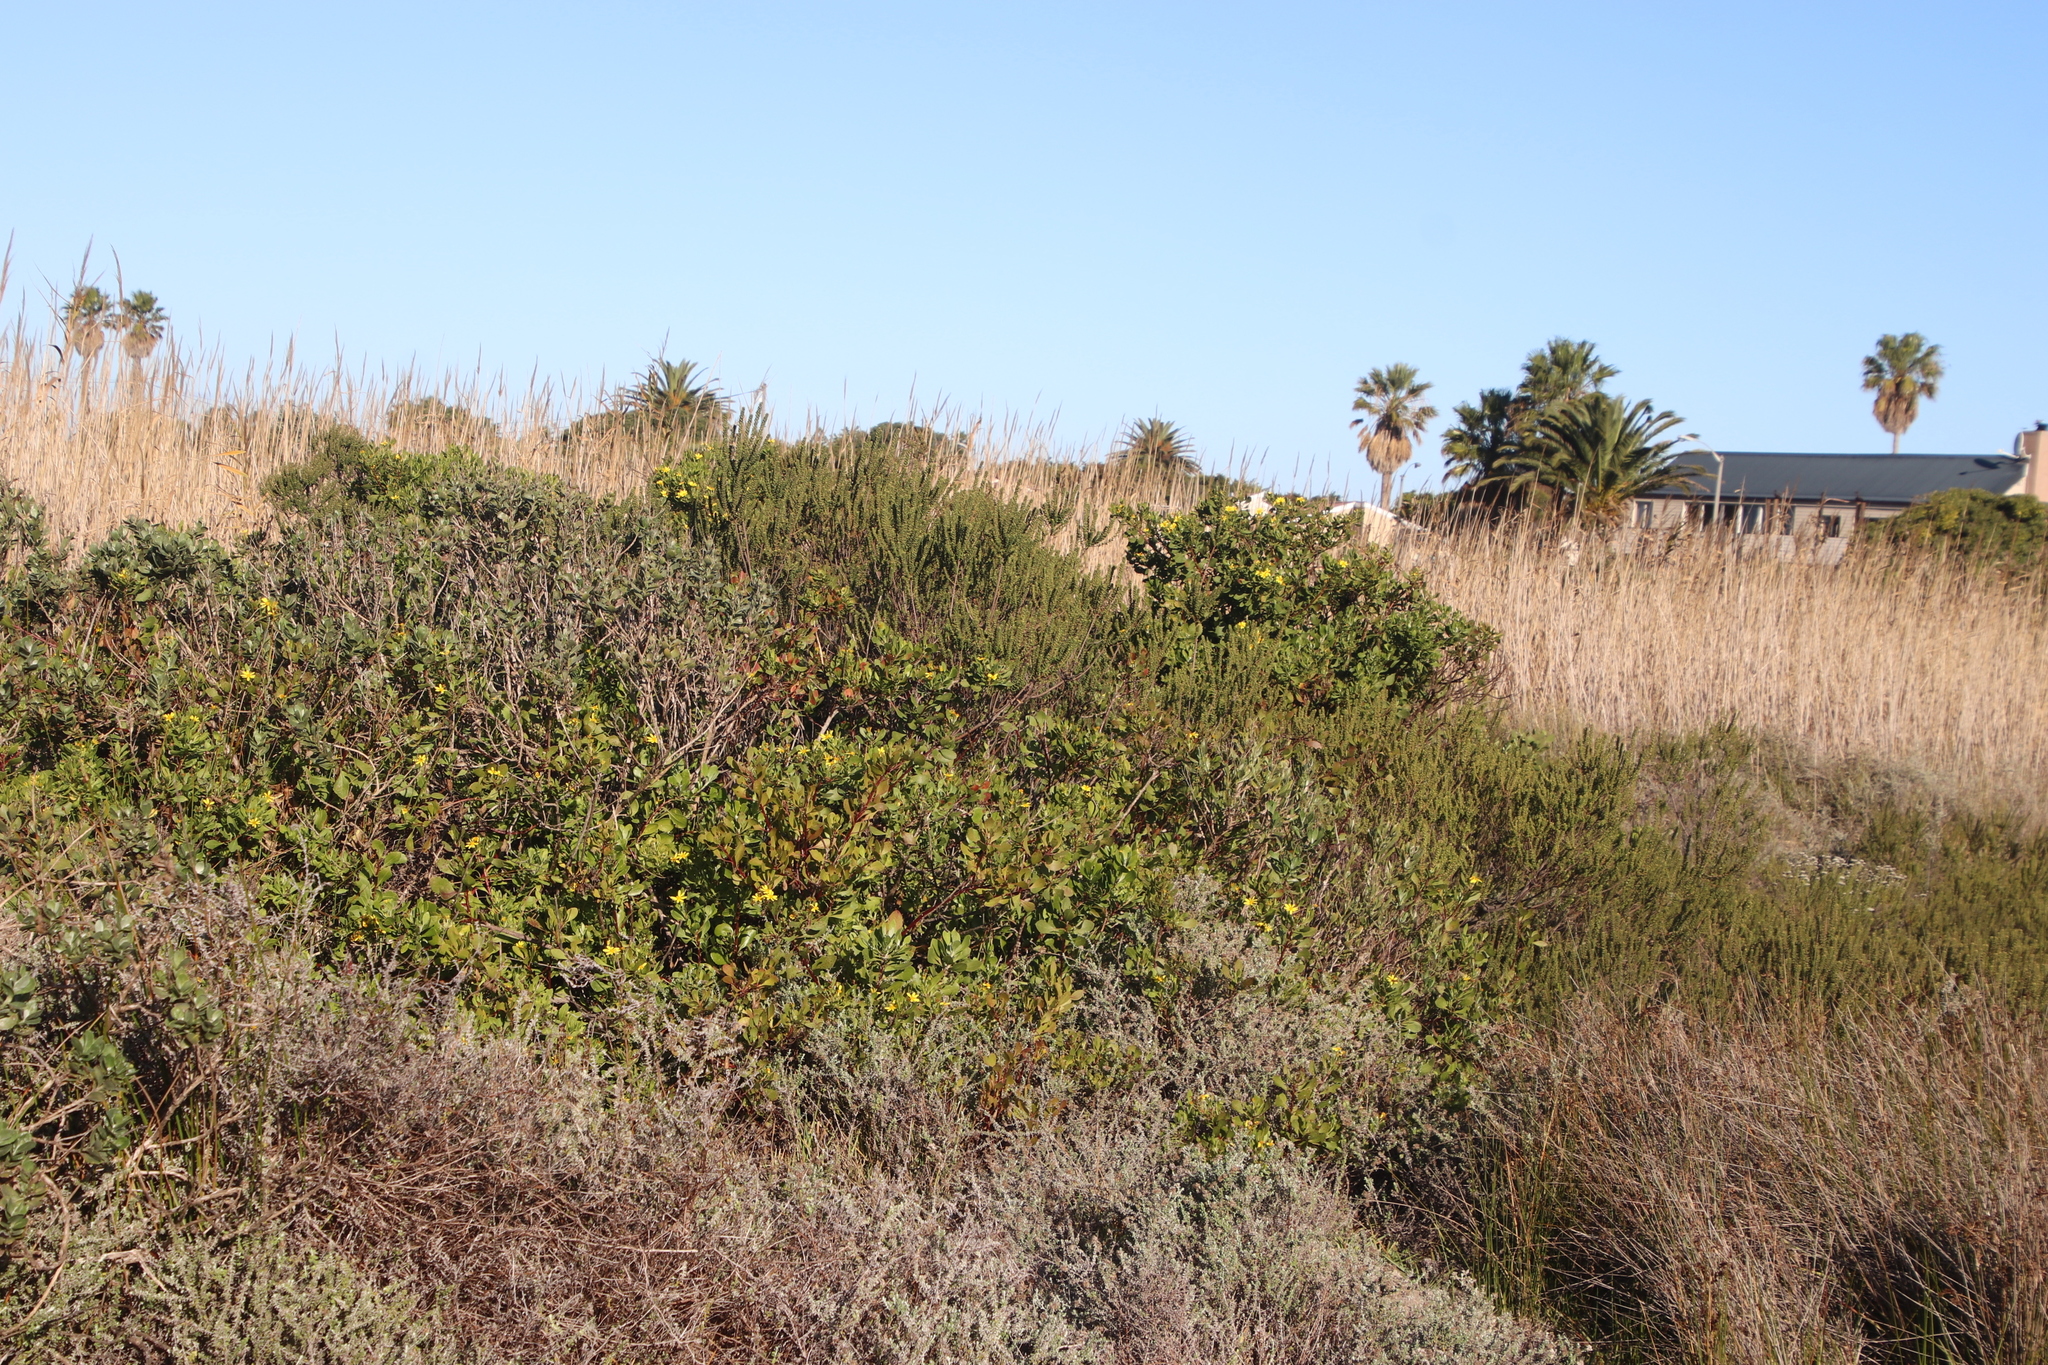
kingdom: Plantae
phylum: Tracheophyta
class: Magnoliopsida
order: Asterales
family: Asteraceae
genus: Osteospermum
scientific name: Osteospermum moniliferum
